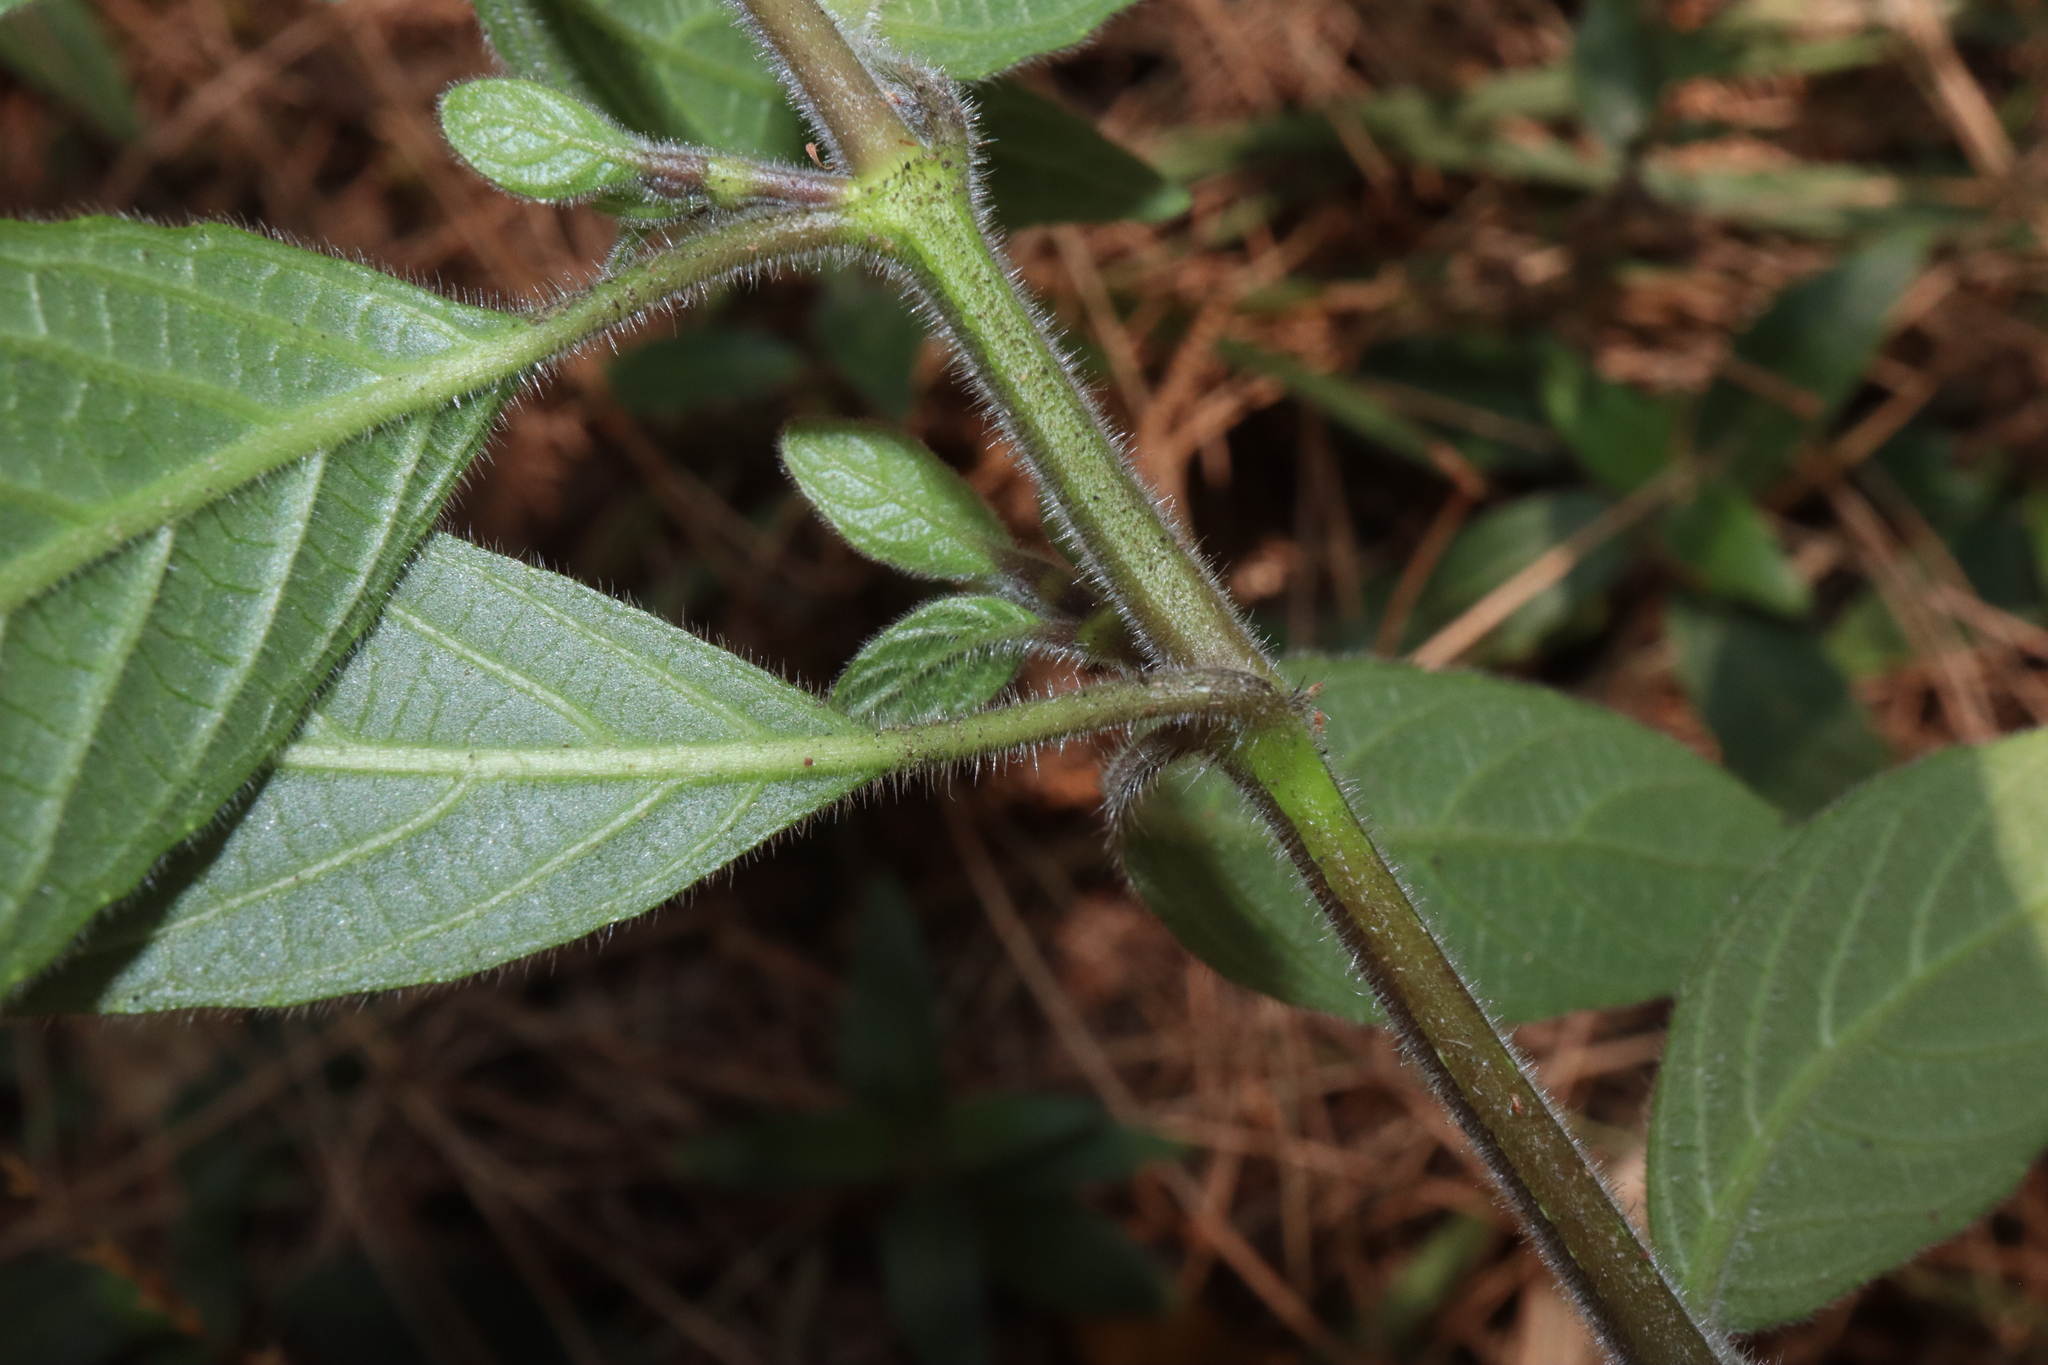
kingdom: Plantae
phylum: Tracheophyta
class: Magnoliopsida
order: Lamiales
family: Acanthaceae
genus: Ruellia
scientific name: Ruellia squarrosa
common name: Water bluebell
